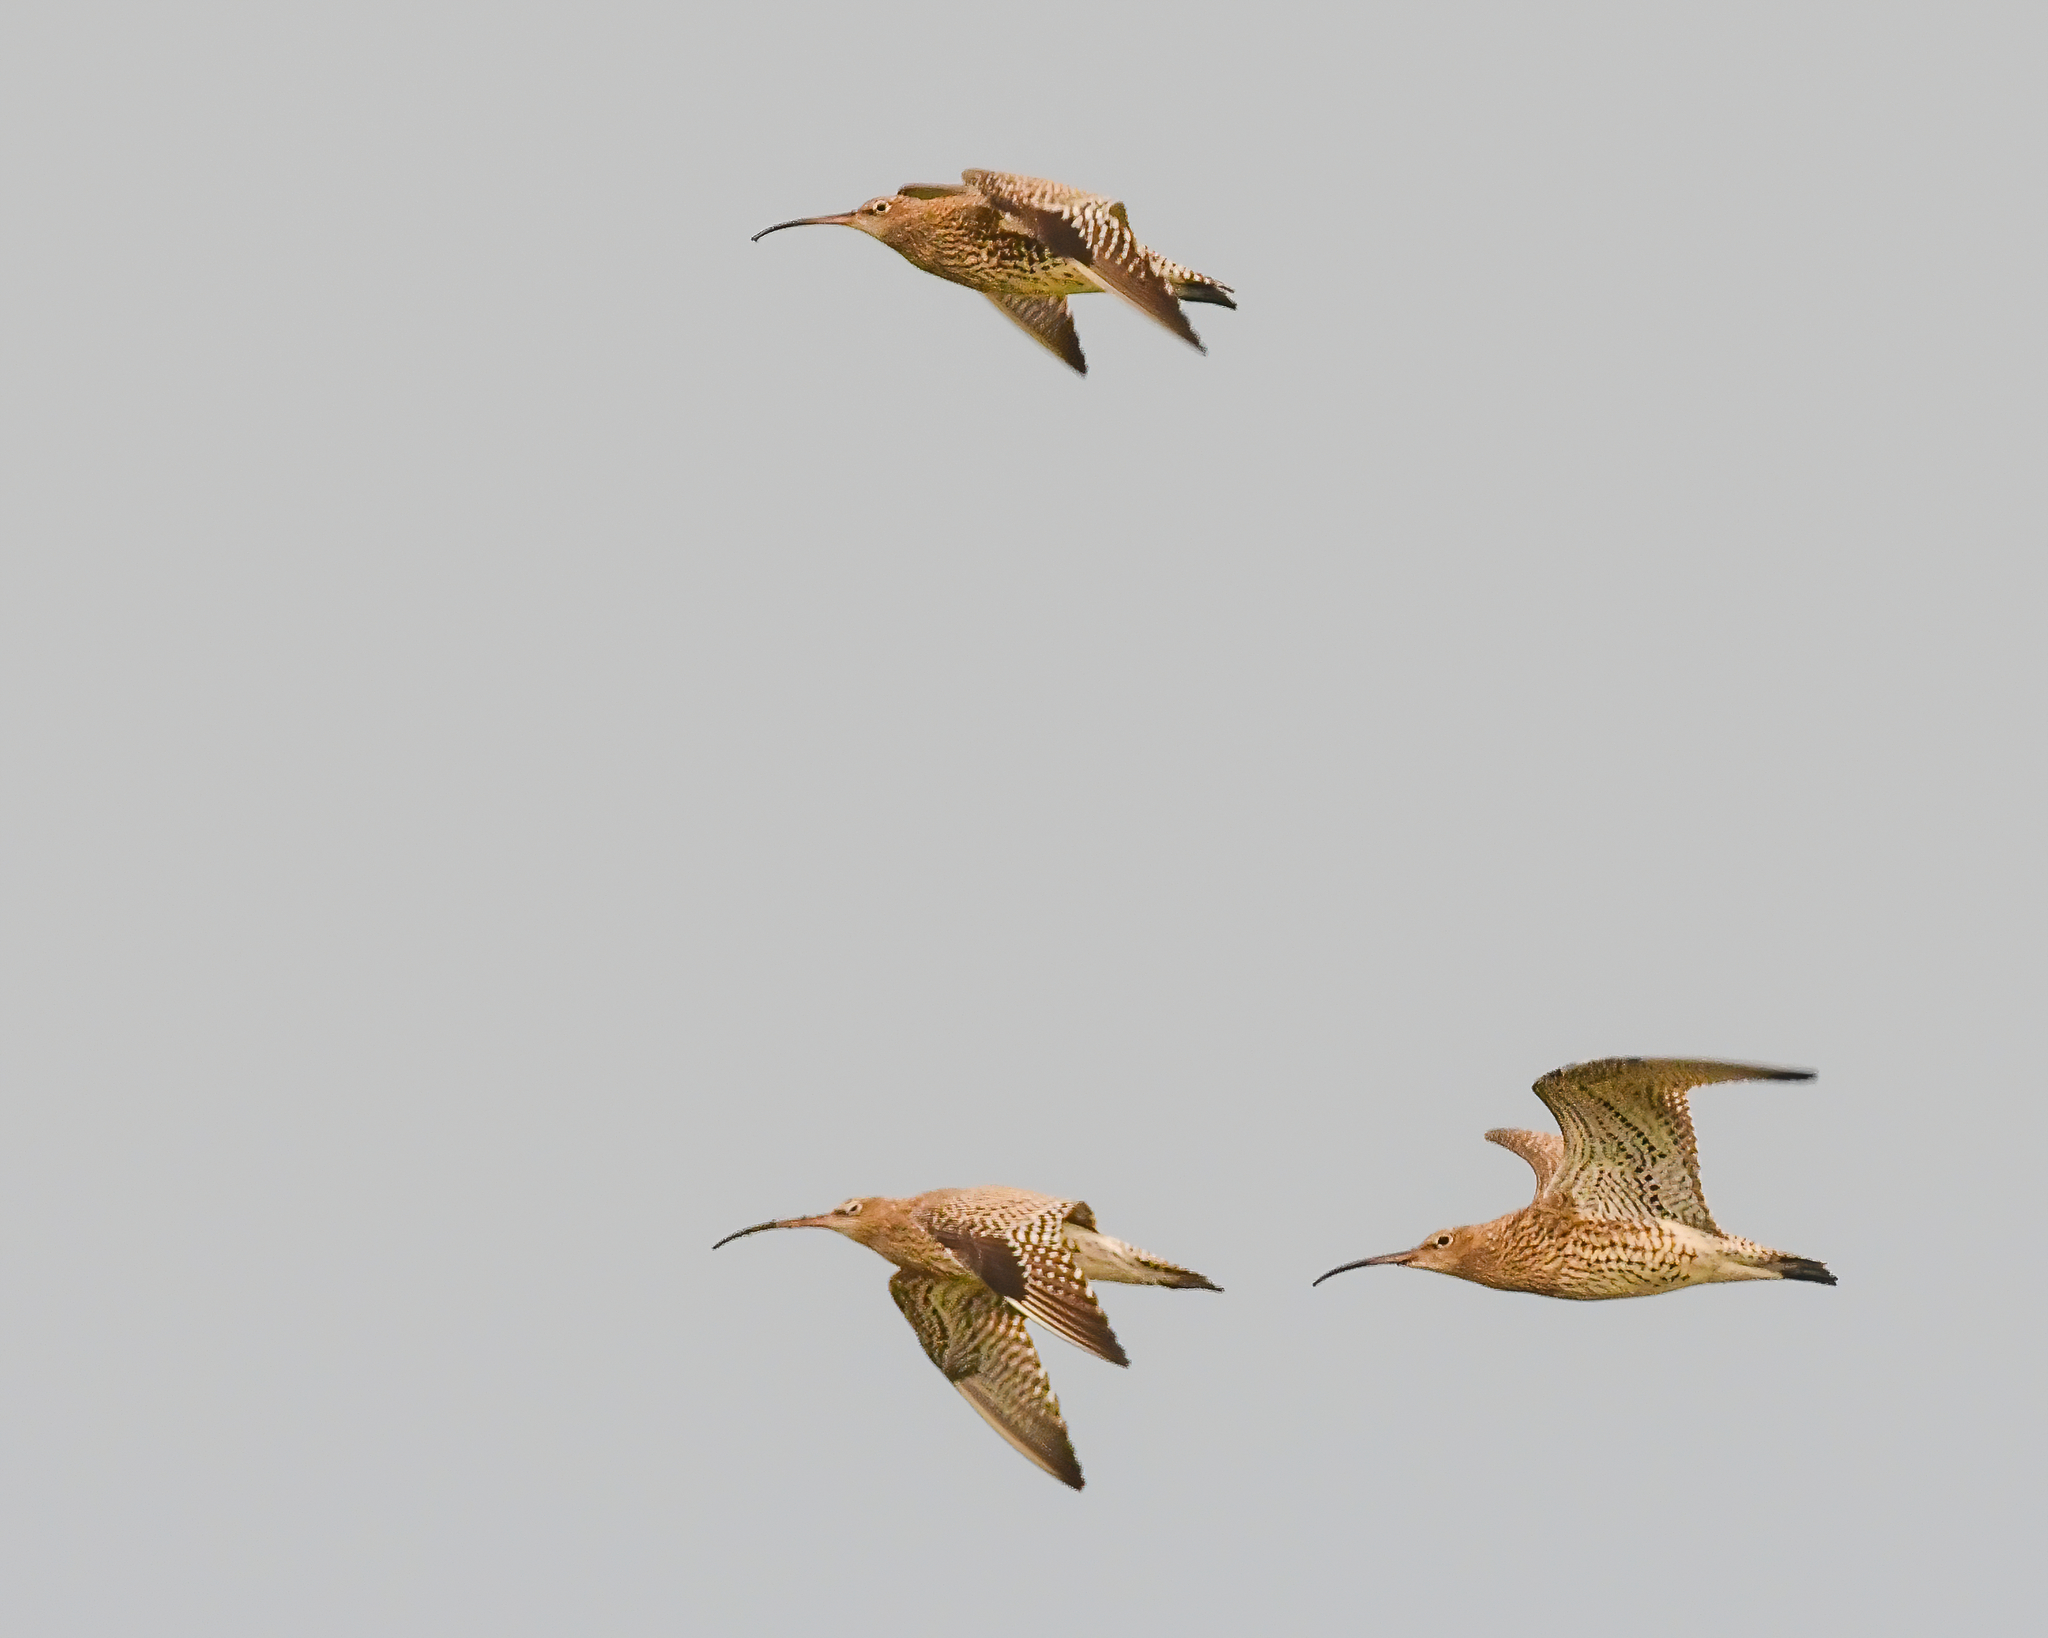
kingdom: Animalia
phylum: Chordata
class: Aves
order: Charadriiformes
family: Scolopacidae
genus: Numenius
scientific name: Numenius arquata
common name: Eurasian curlew
